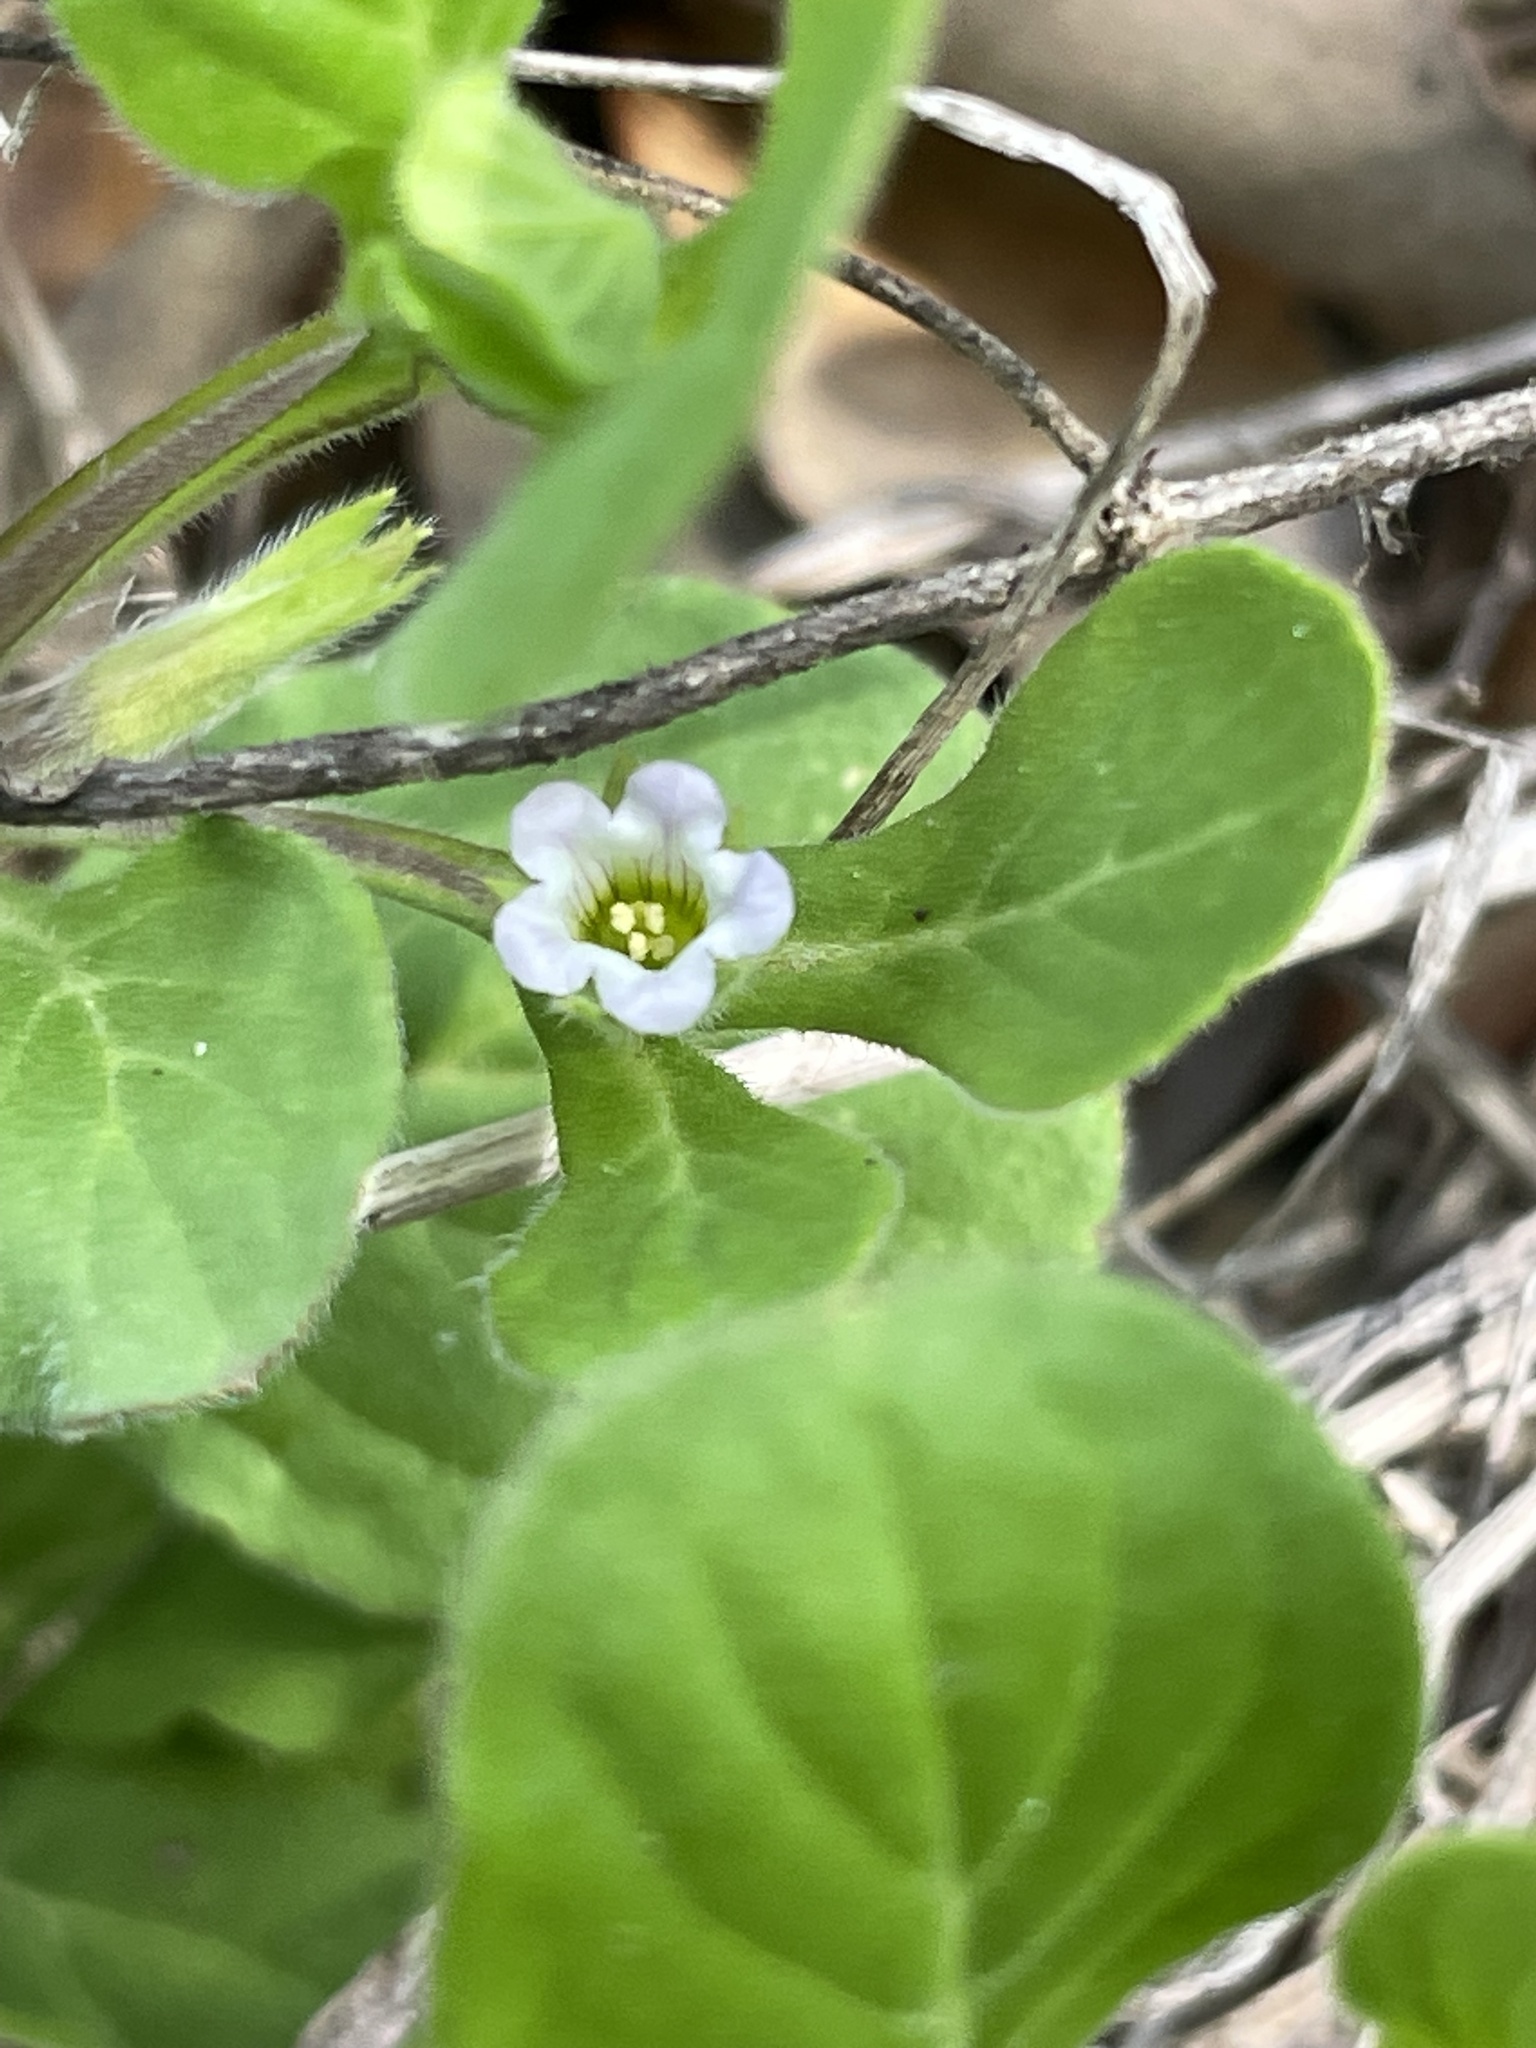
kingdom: Plantae
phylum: Tracheophyta
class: Magnoliopsida
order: Boraginales
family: Namaceae
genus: Nama
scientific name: Nama jamaicensis
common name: Jamaicanweed
